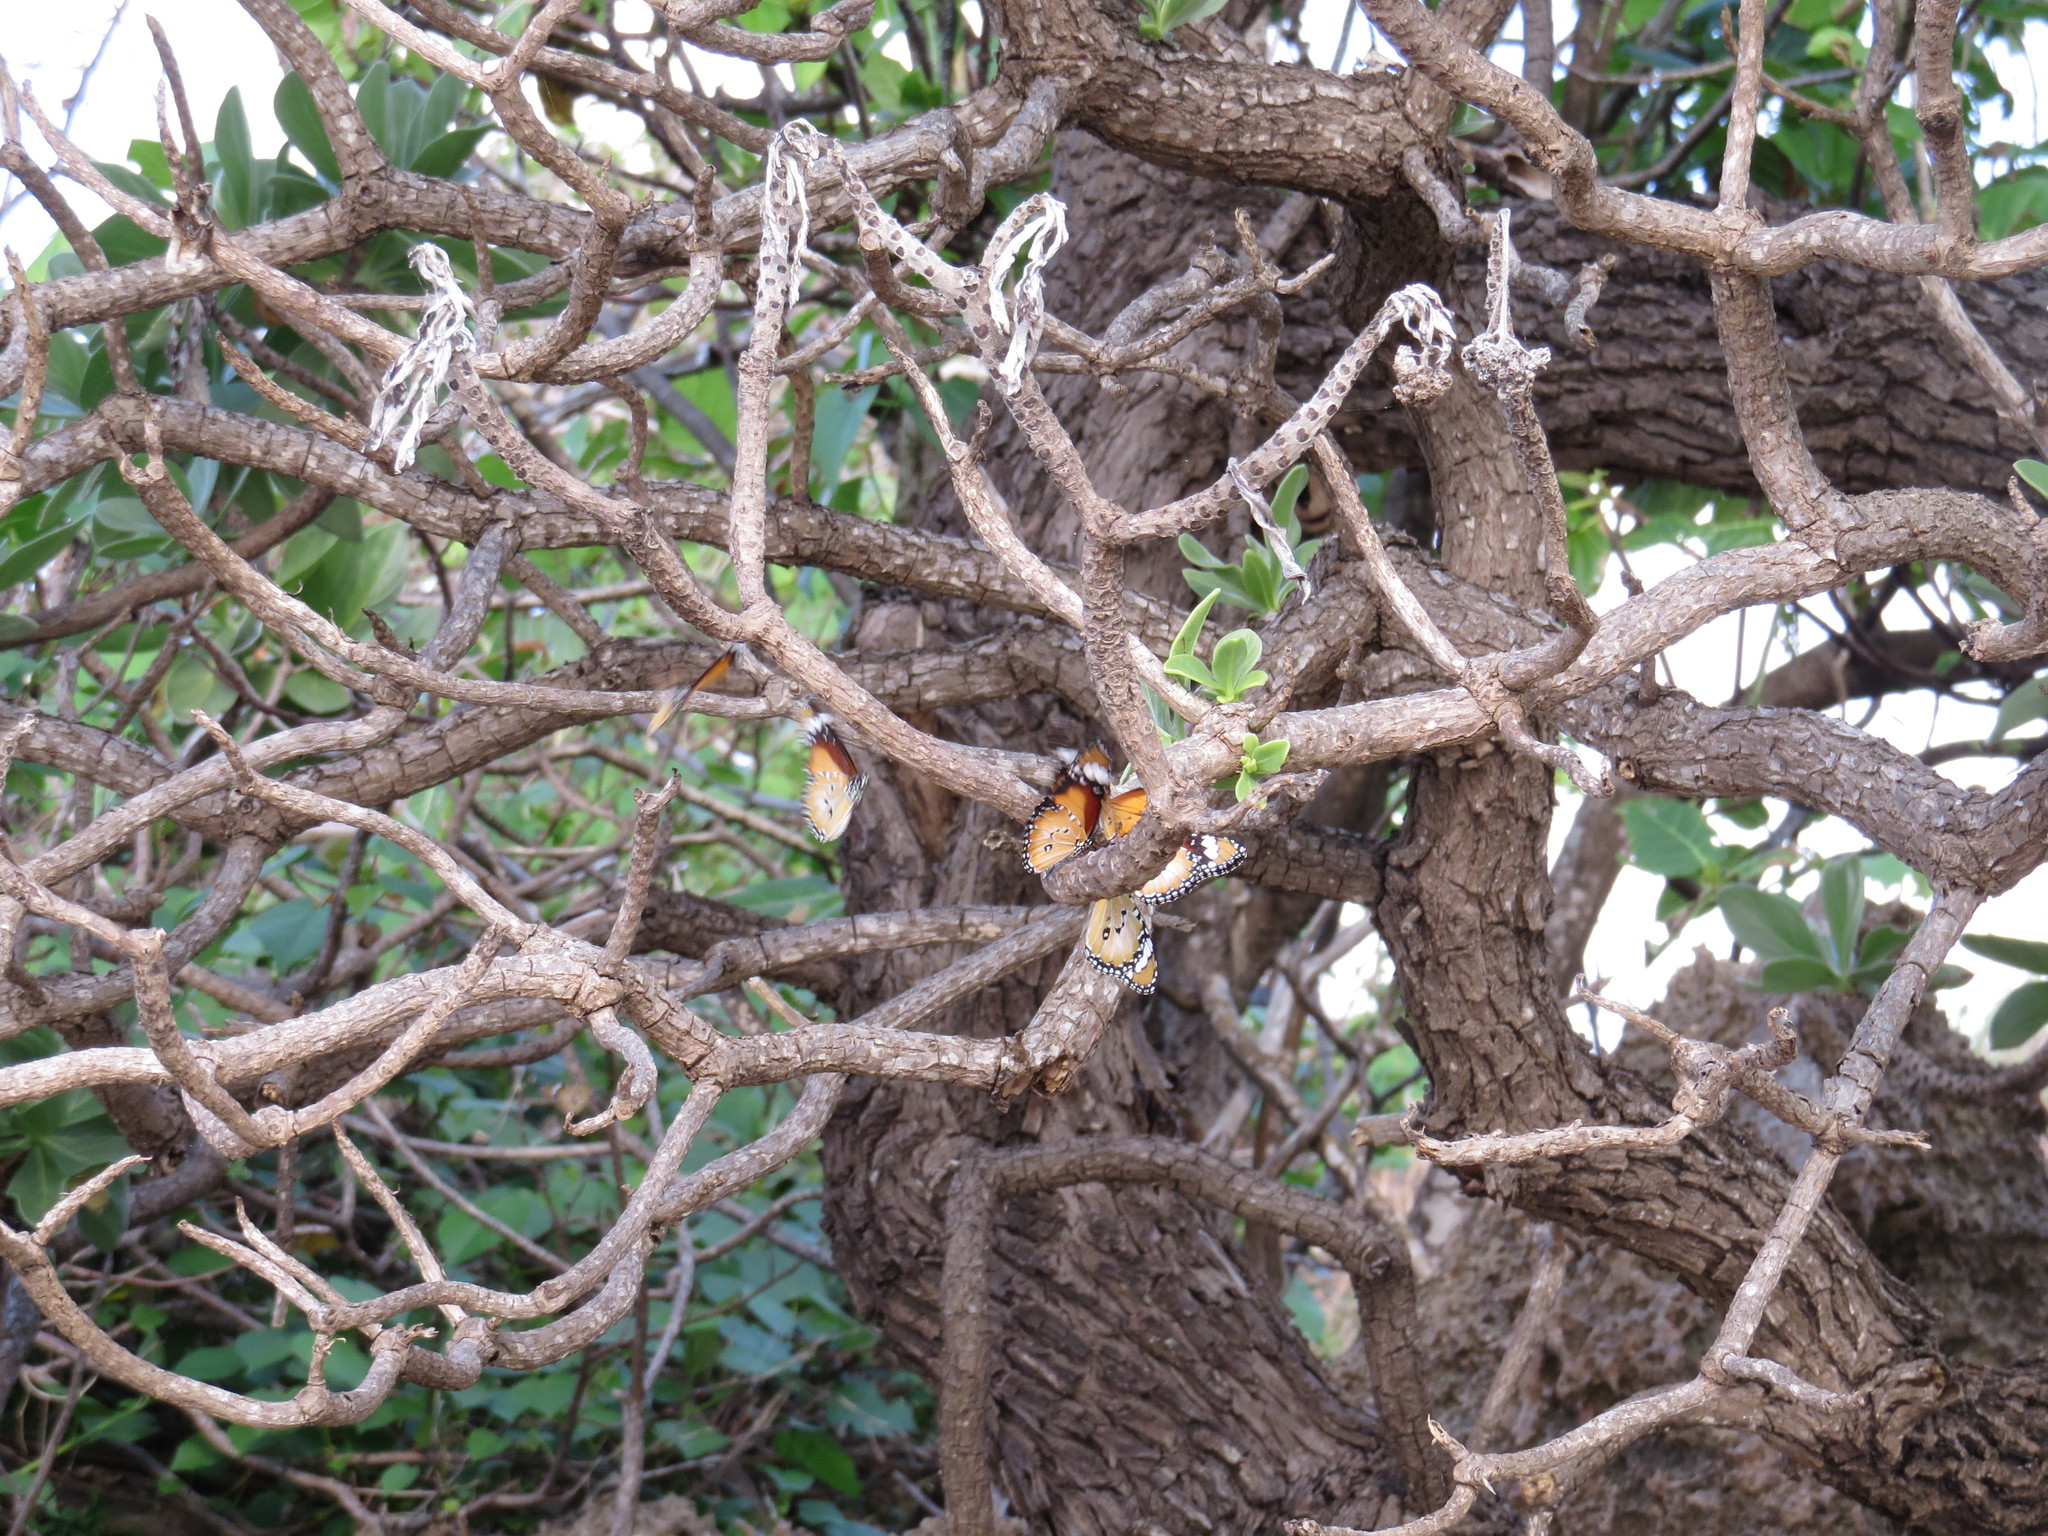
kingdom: Plantae
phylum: Tracheophyta
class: Magnoliopsida
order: Boraginales
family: Heliotropiaceae
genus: Heliotropium
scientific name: Heliotropium velutinum
